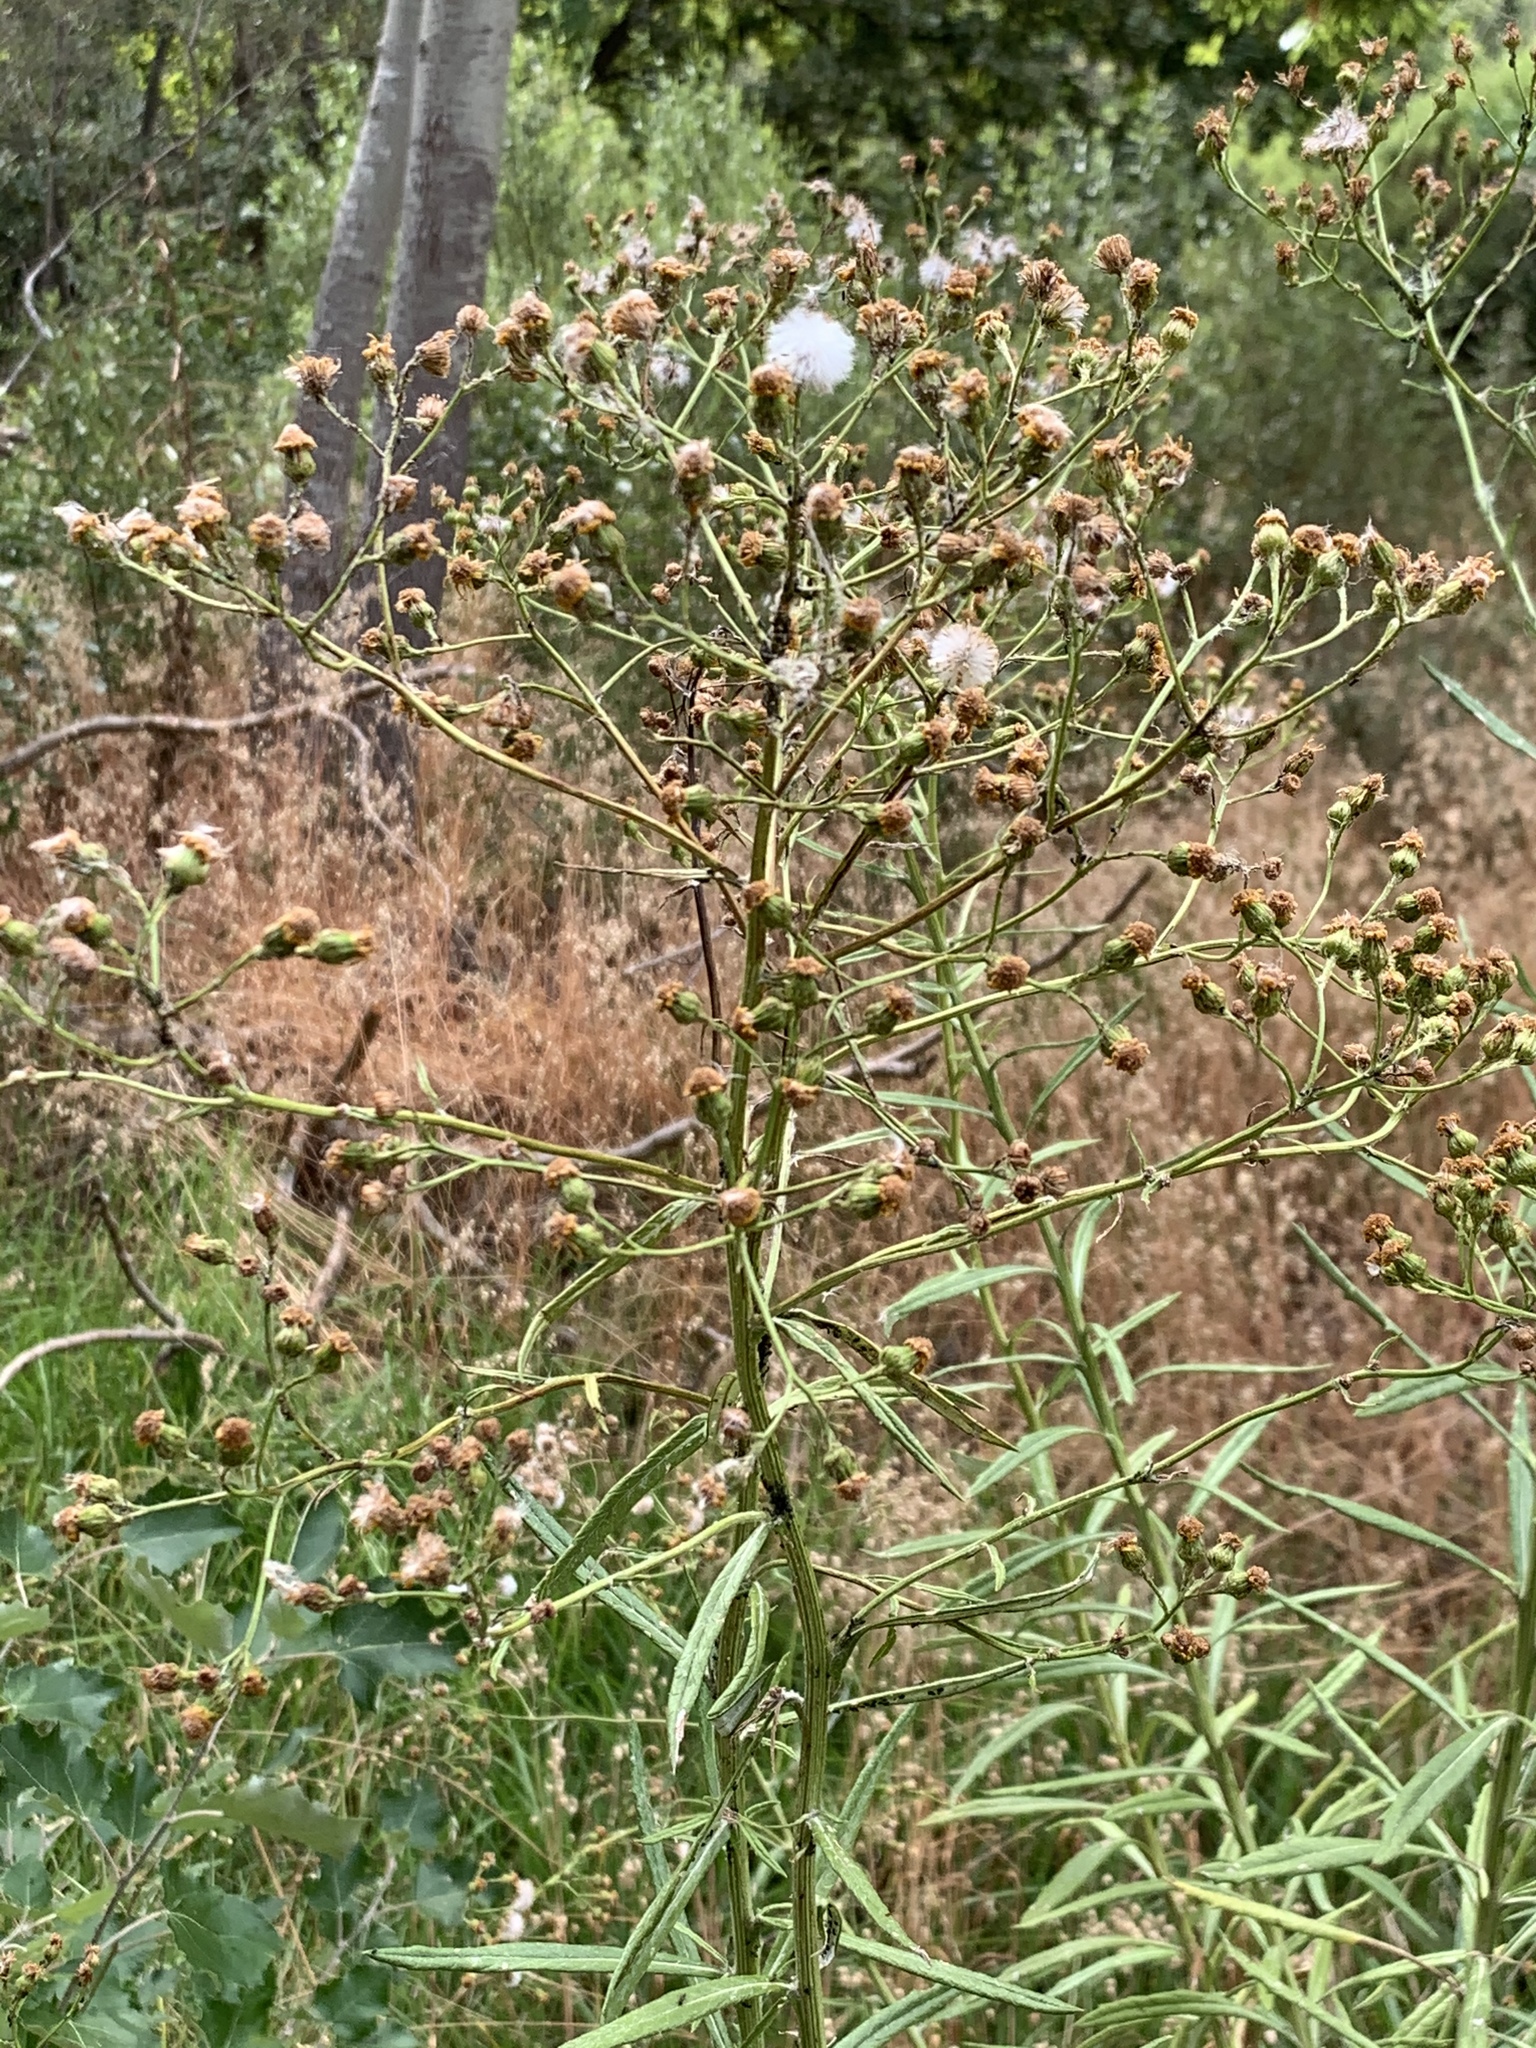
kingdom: Plantae
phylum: Tracheophyta
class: Magnoliopsida
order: Asterales
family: Asteraceae
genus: Senecio
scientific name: Senecio pterophorus
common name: Shoddy ragwort
